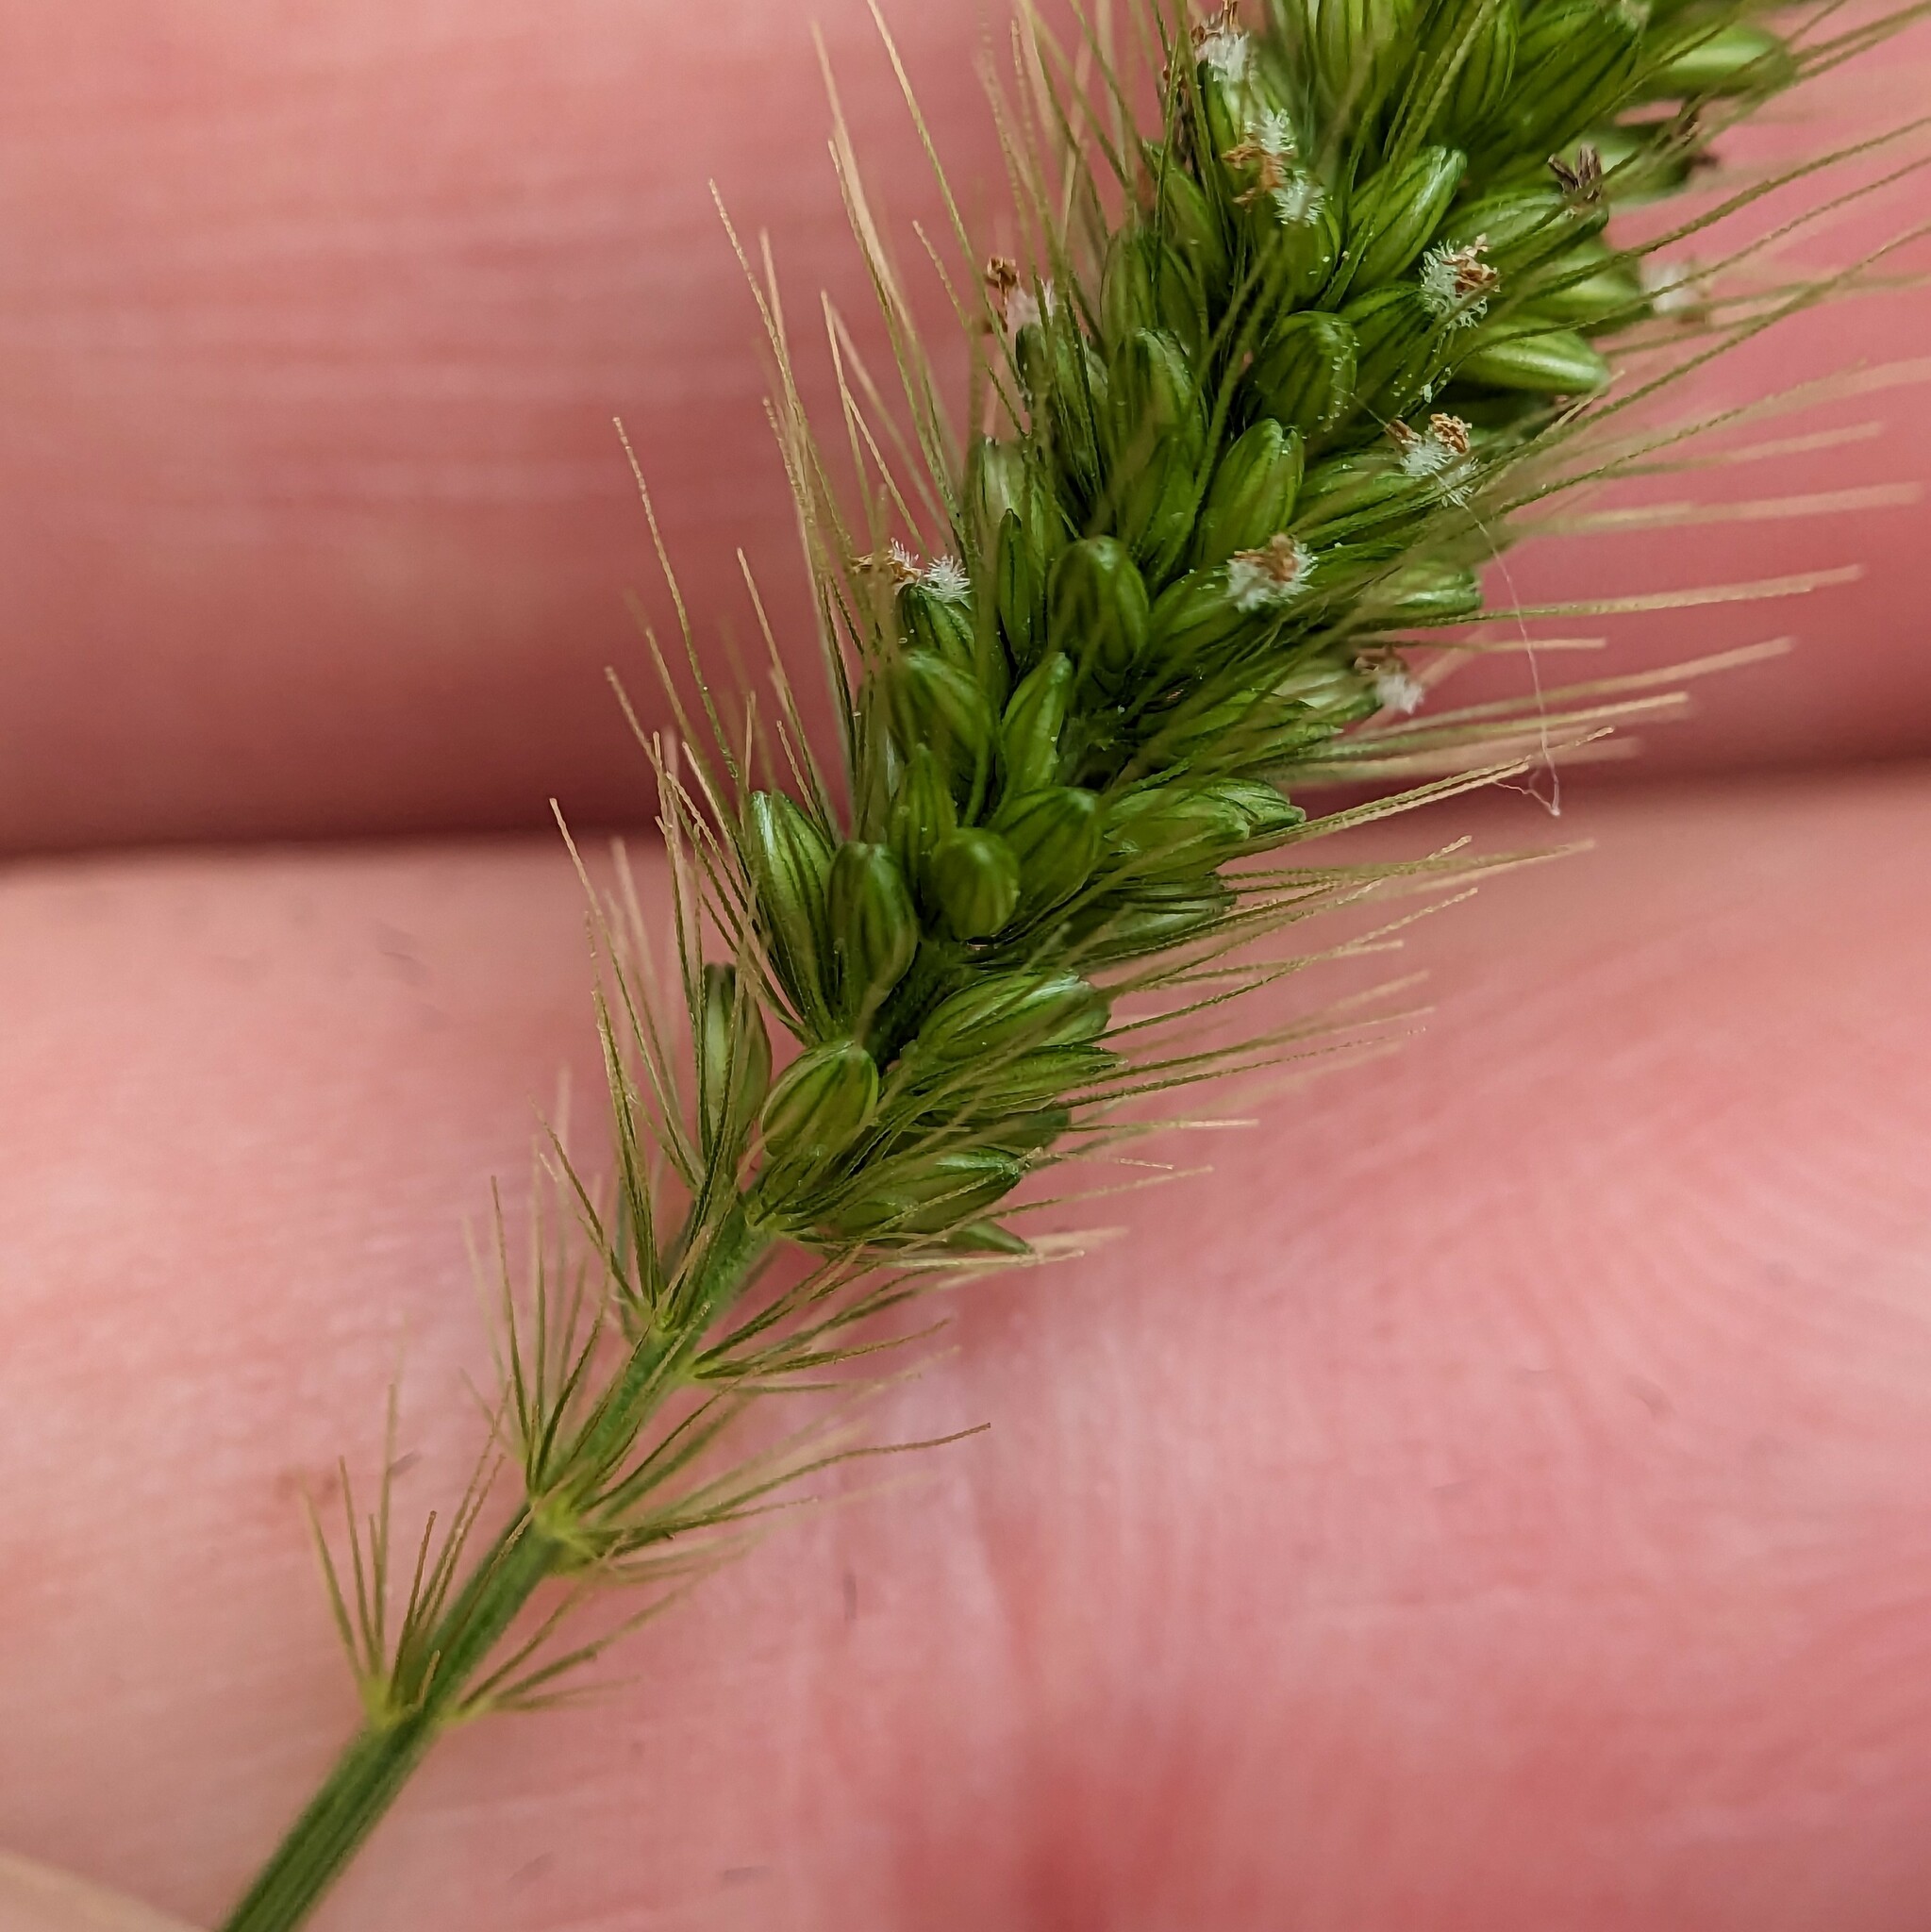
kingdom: Plantae
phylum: Tracheophyta
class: Liliopsida
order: Poales
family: Poaceae
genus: Setaria
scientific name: Setaria viridis
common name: Green bristlegrass
